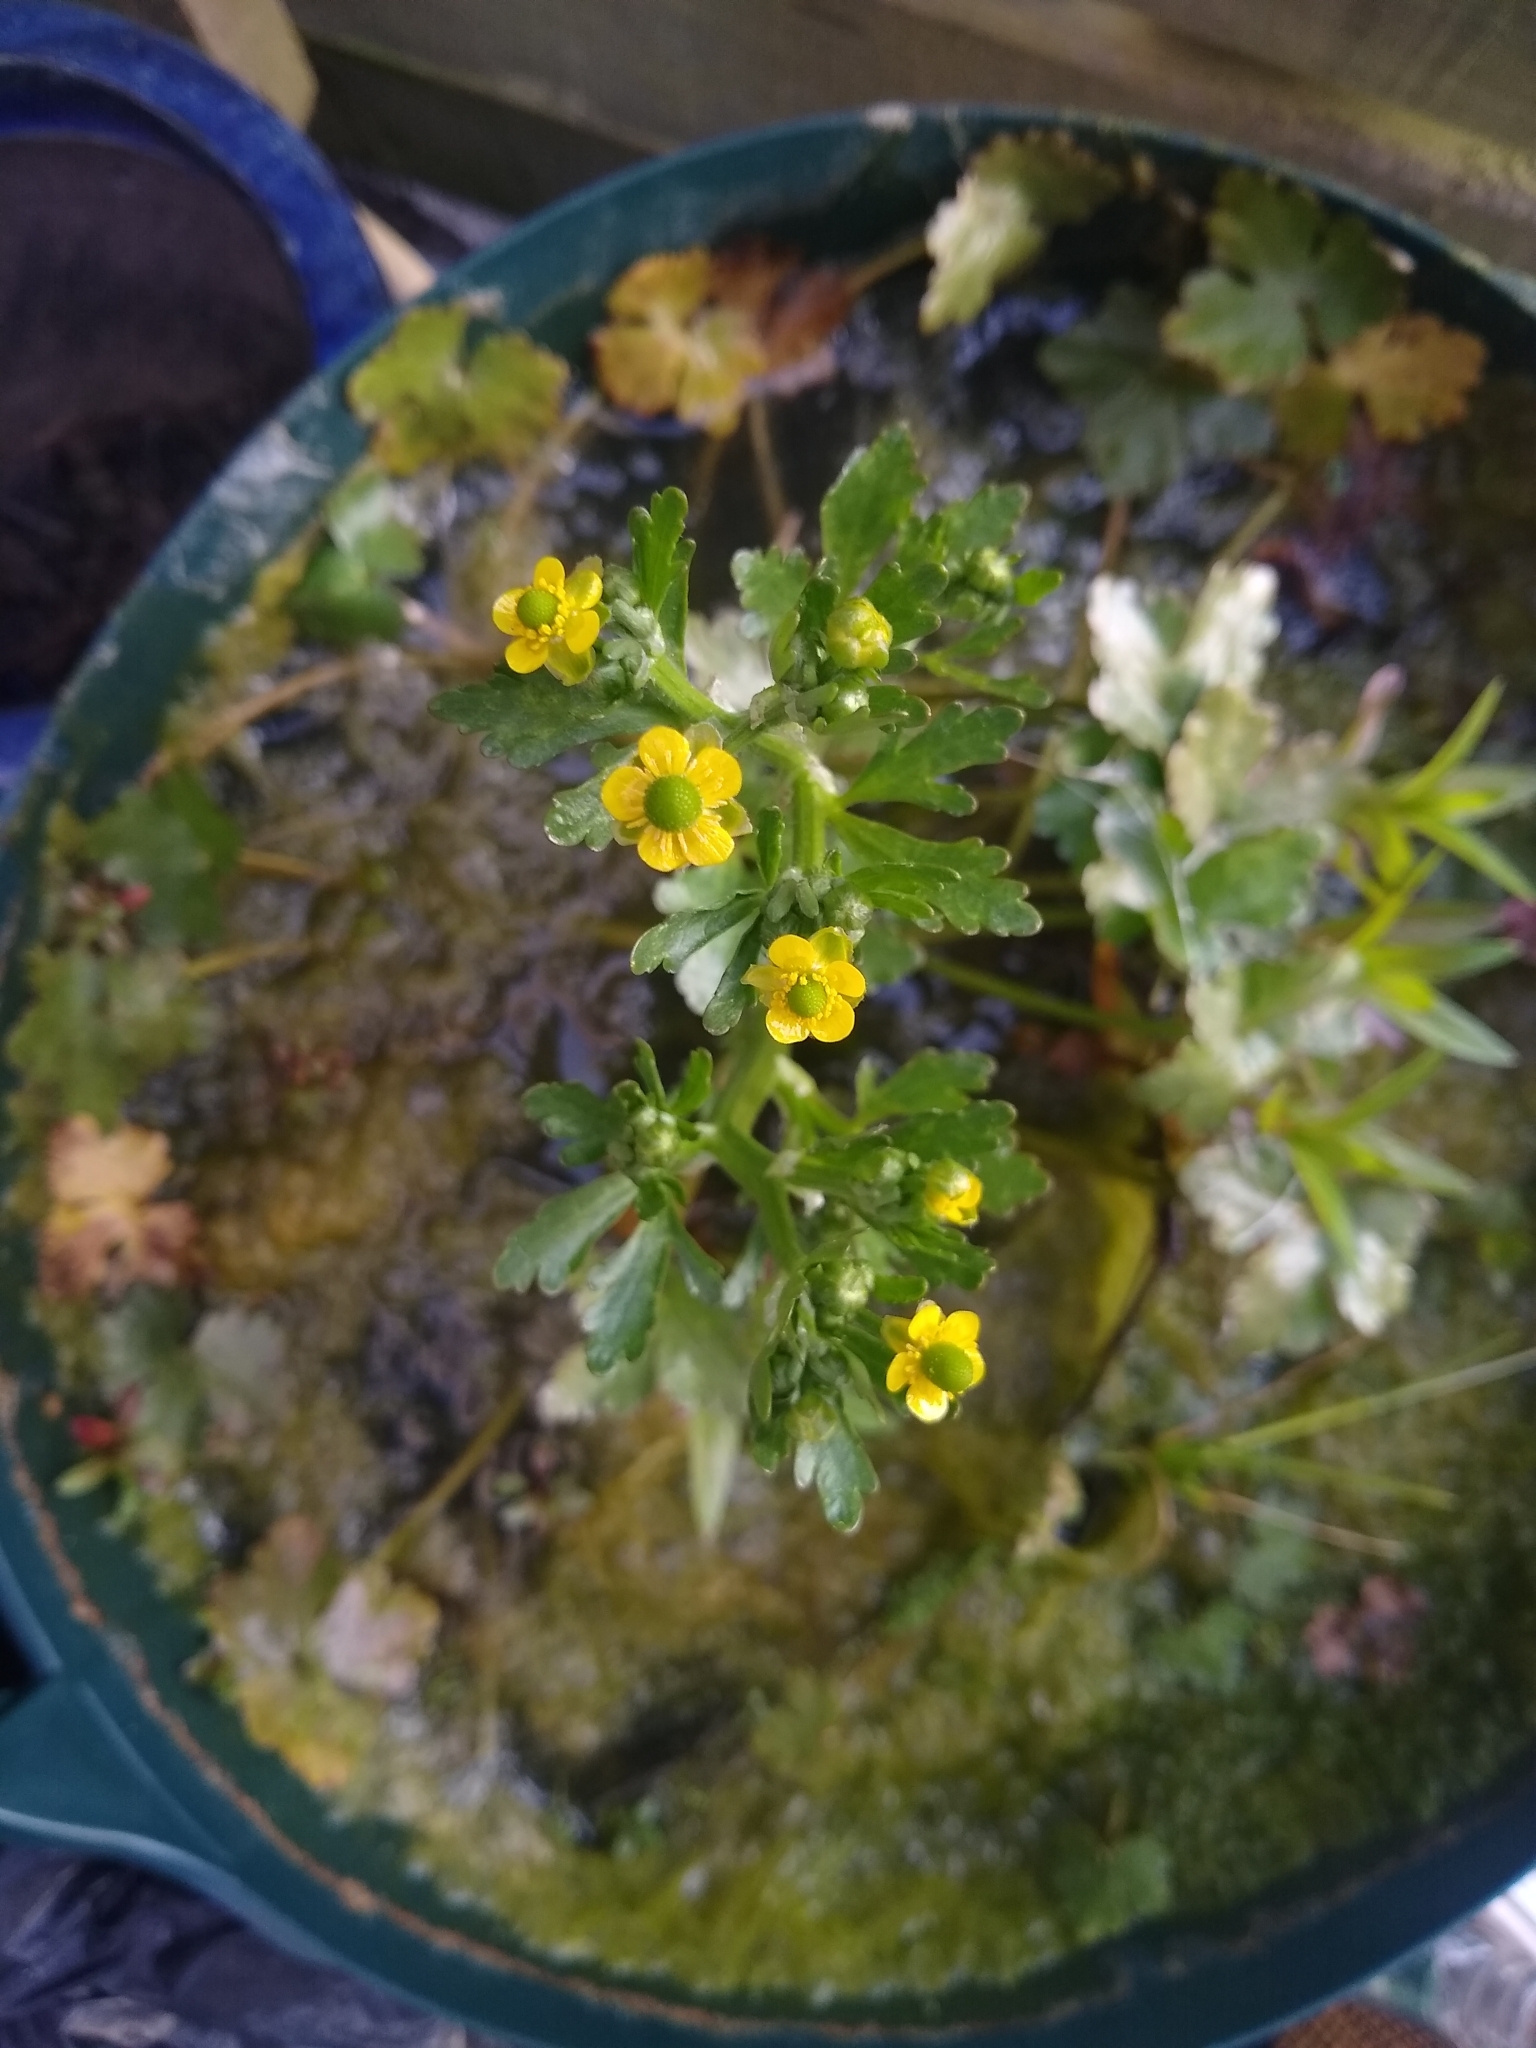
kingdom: Plantae
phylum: Tracheophyta
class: Magnoliopsida
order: Ranunculales
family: Ranunculaceae
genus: Ranunculus
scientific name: Ranunculus sceleratus
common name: Celery-leaved buttercup
